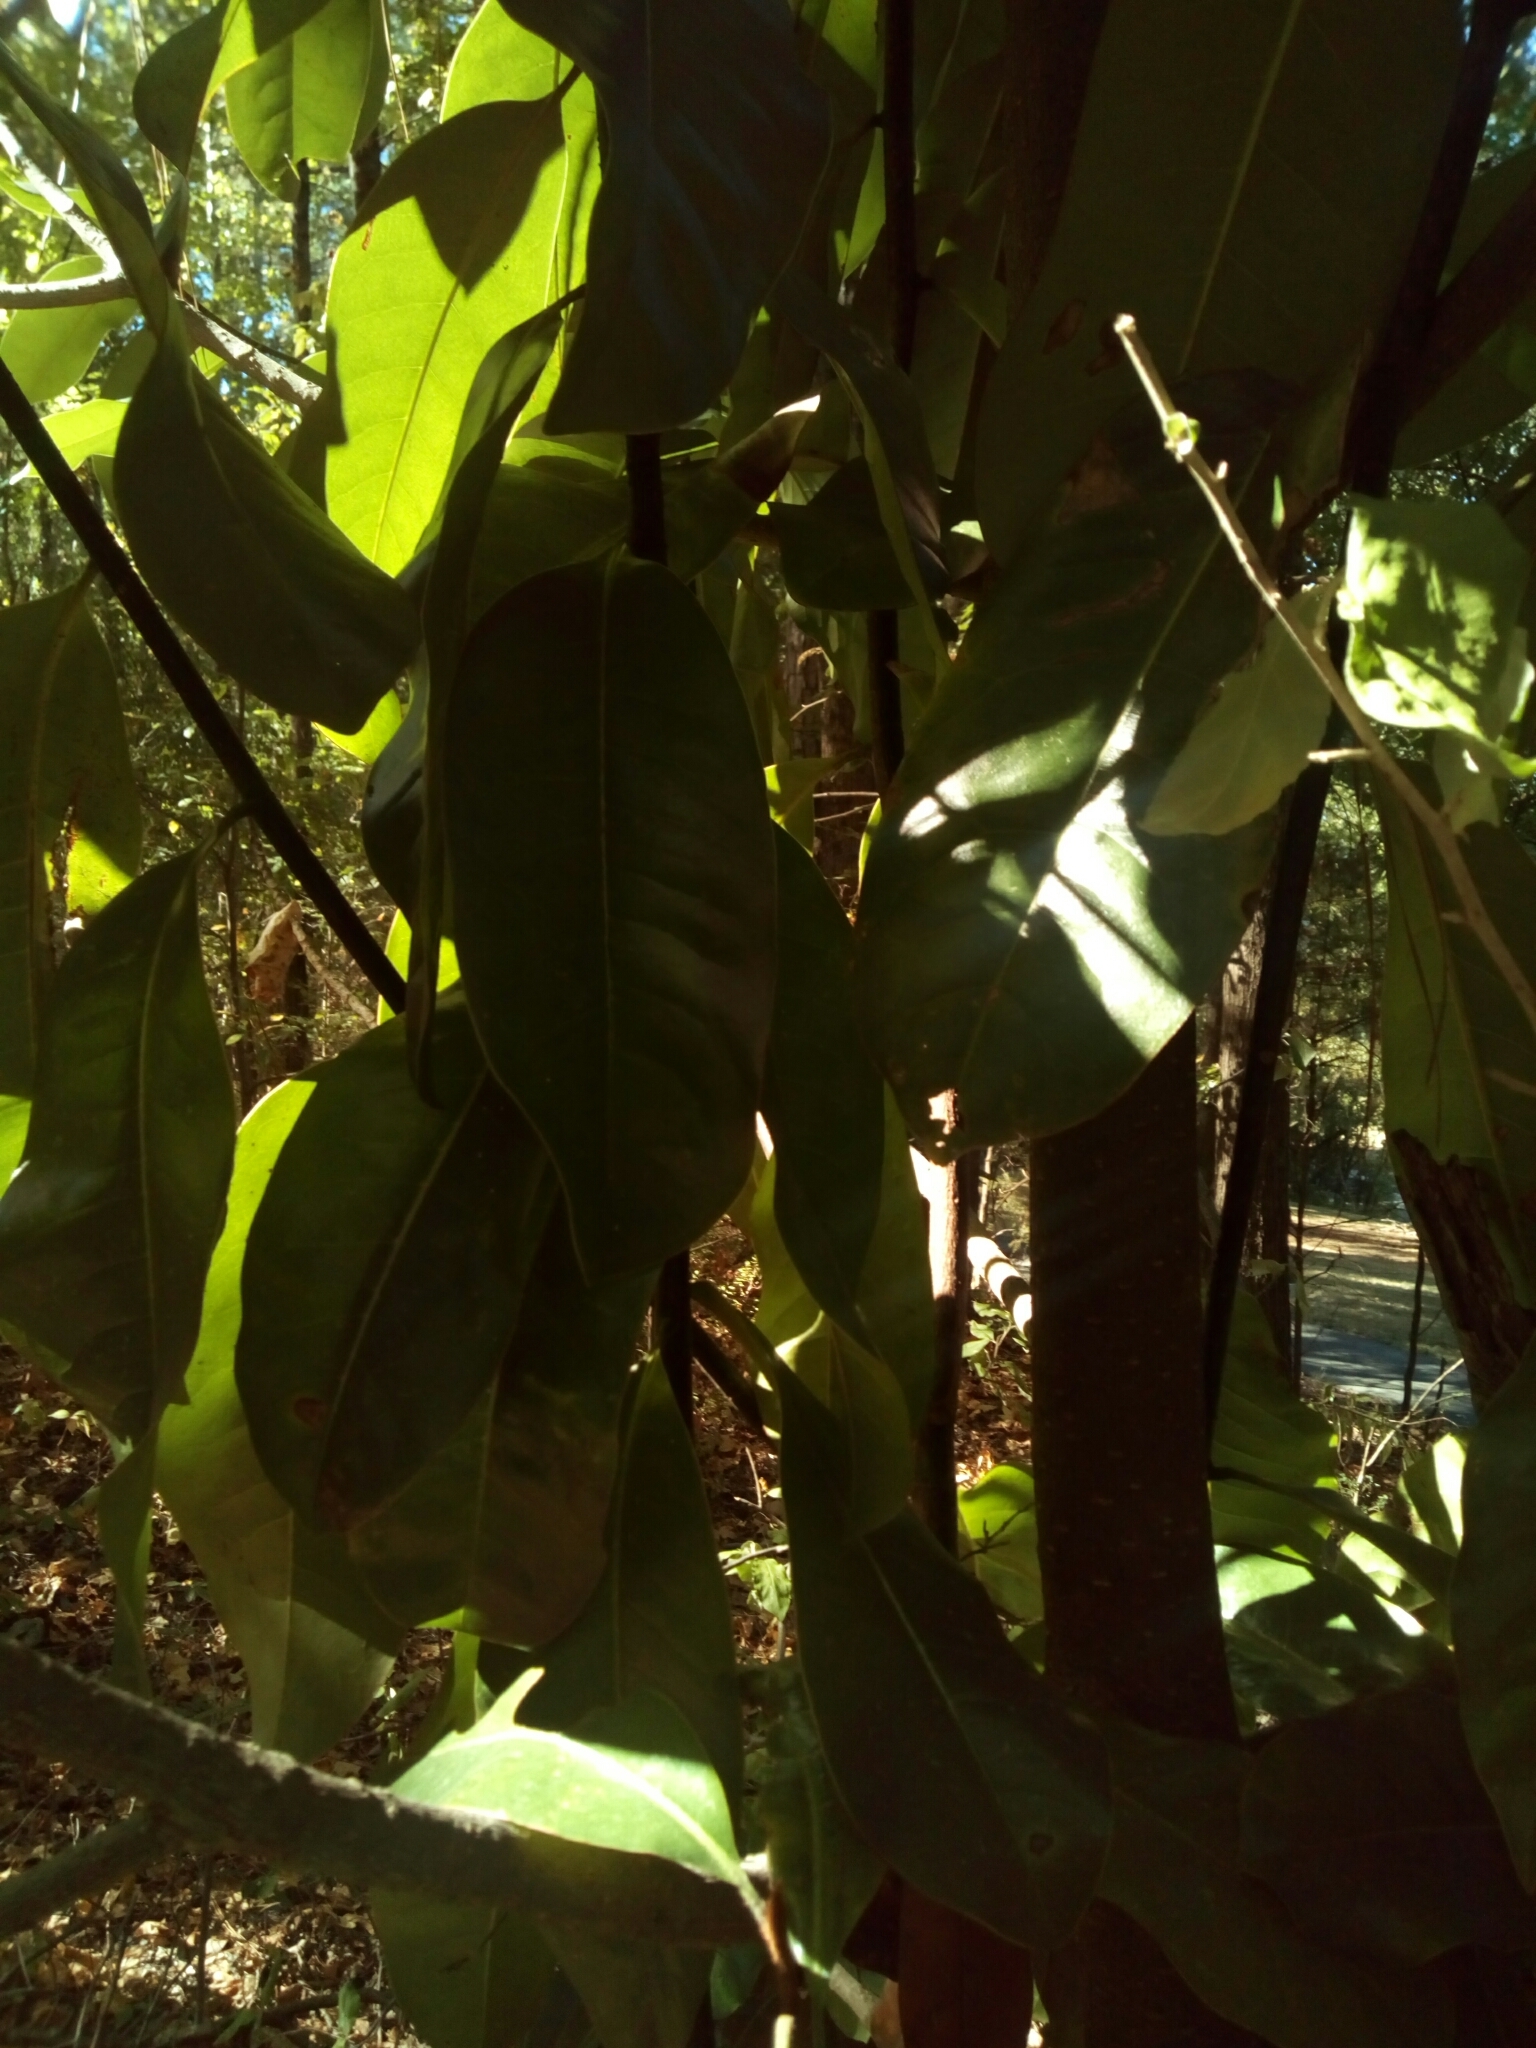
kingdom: Plantae
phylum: Tracheophyta
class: Magnoliopsida
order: Magnoliales
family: Magnoliaceae
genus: Magnolia
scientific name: Magnolia grandiflora
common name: Southern magnolia
